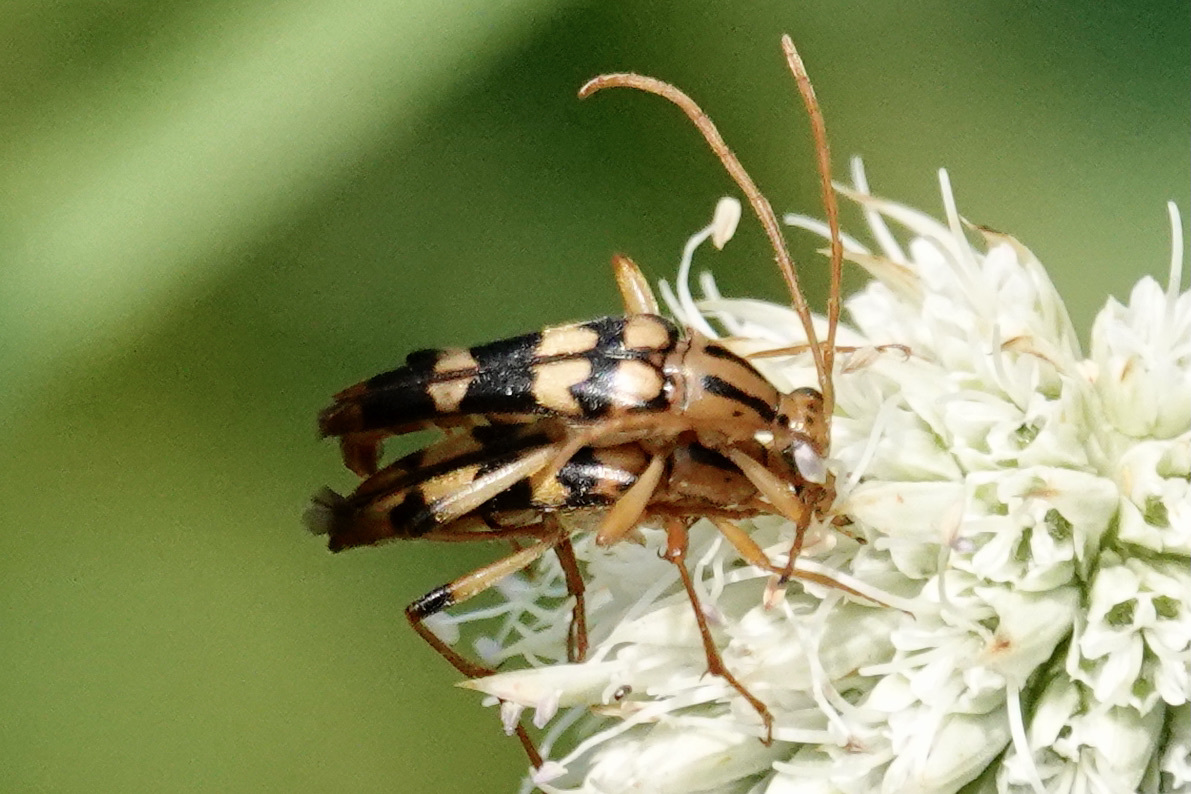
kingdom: Animalia
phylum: Arthropoda
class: Insecta
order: Coleoptera
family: Cerambycidae
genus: Strangalia
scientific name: Strangalia luteicornis
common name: Yellow-horned flower longhorn beetle
